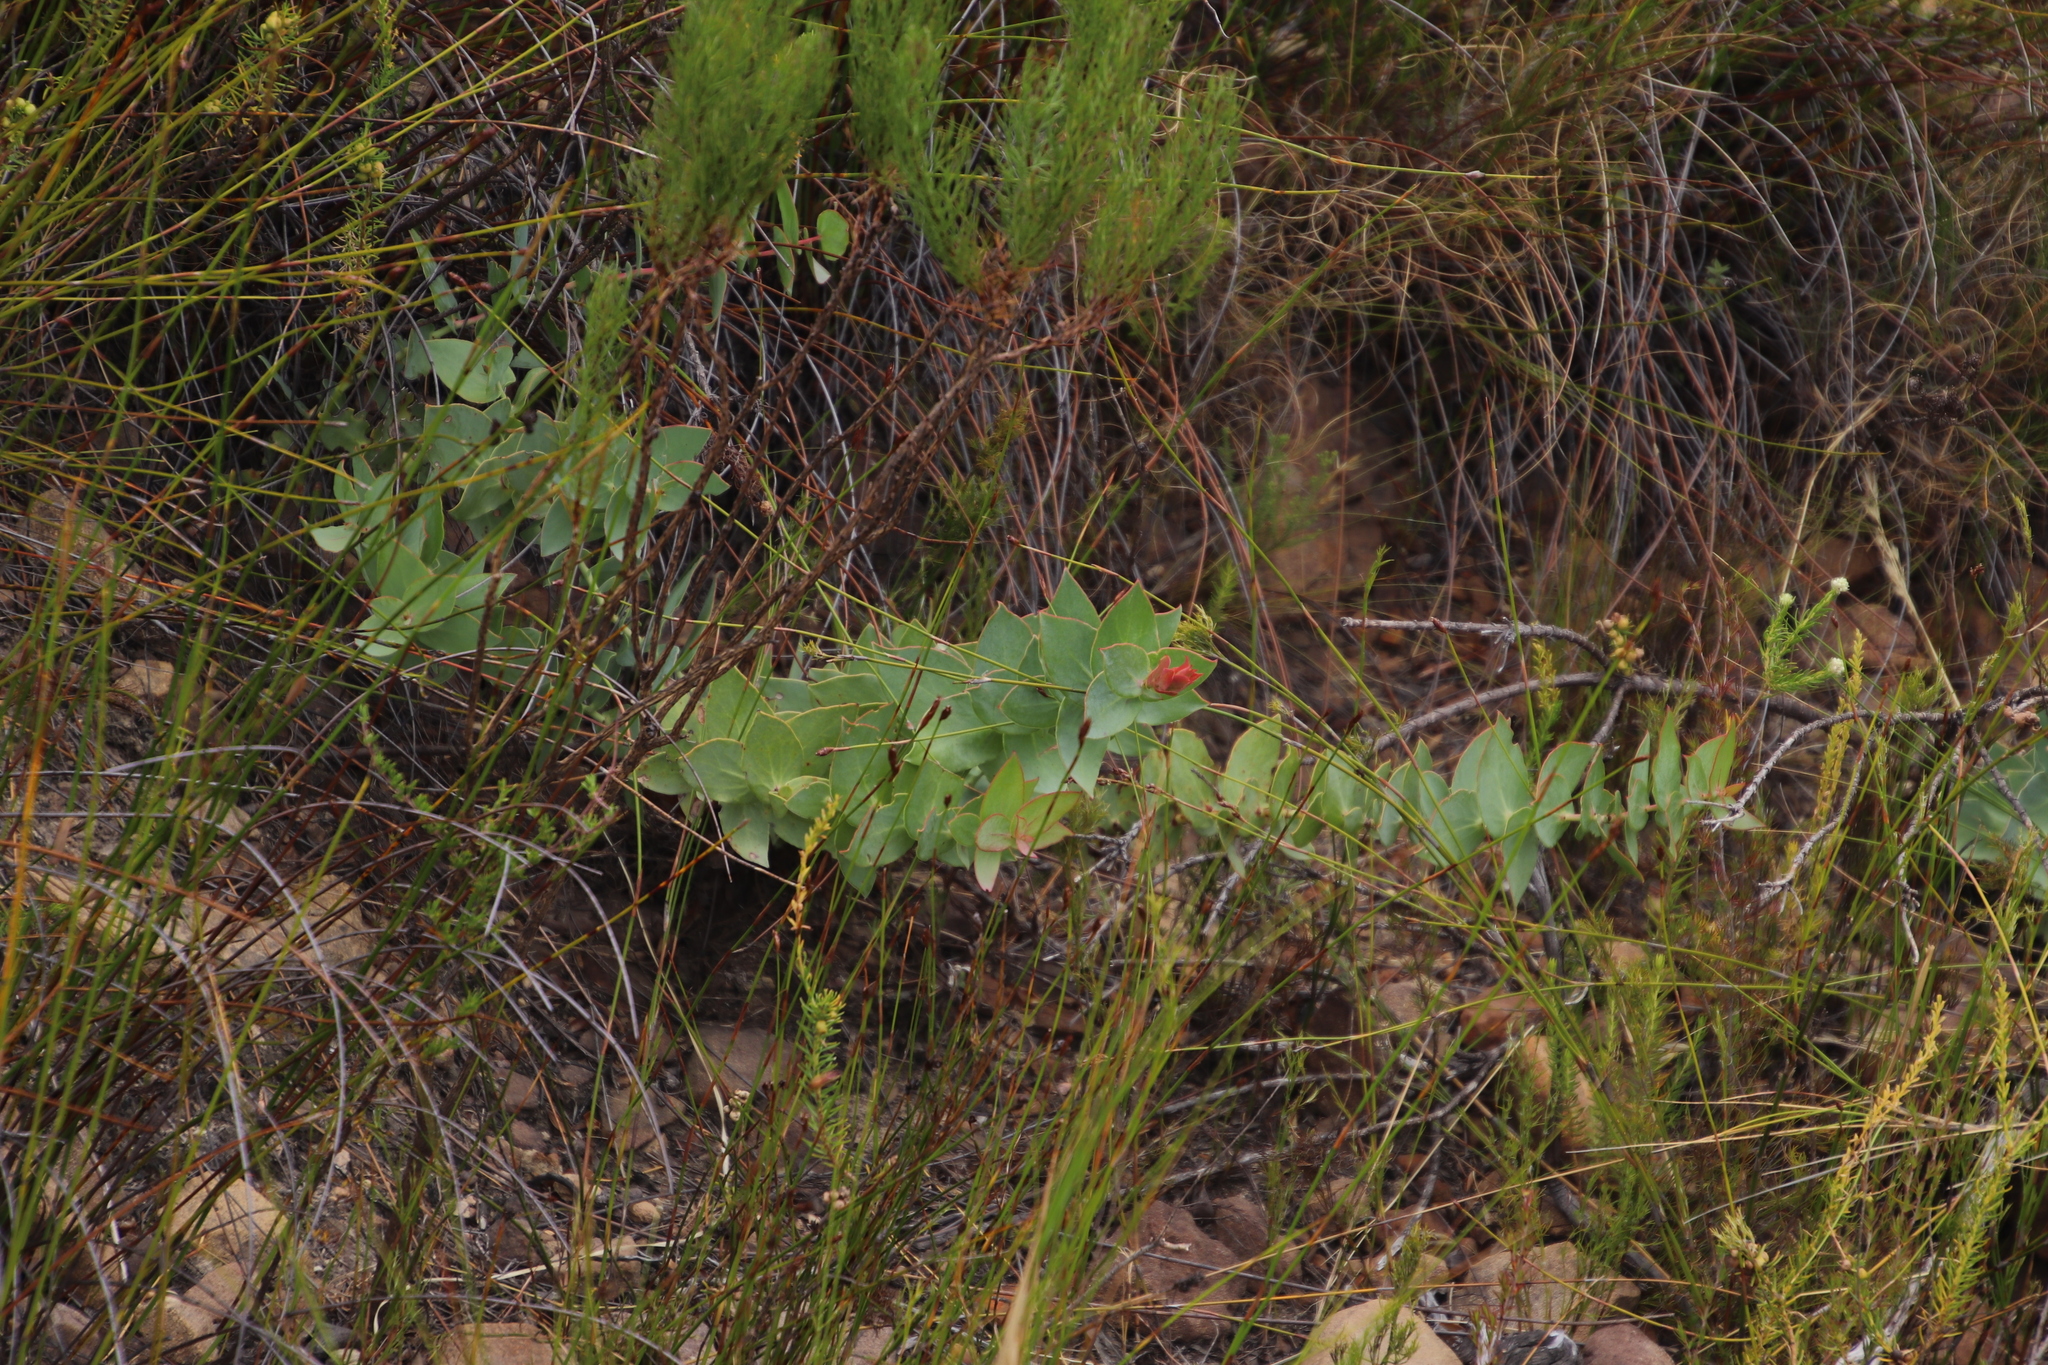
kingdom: Plantae
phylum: Tracheophyta
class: Magnoliopsida
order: Proteales
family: Proteaceae
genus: Protea
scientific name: Protea amplexicaulis
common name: Clasping-leaf sugarbush
